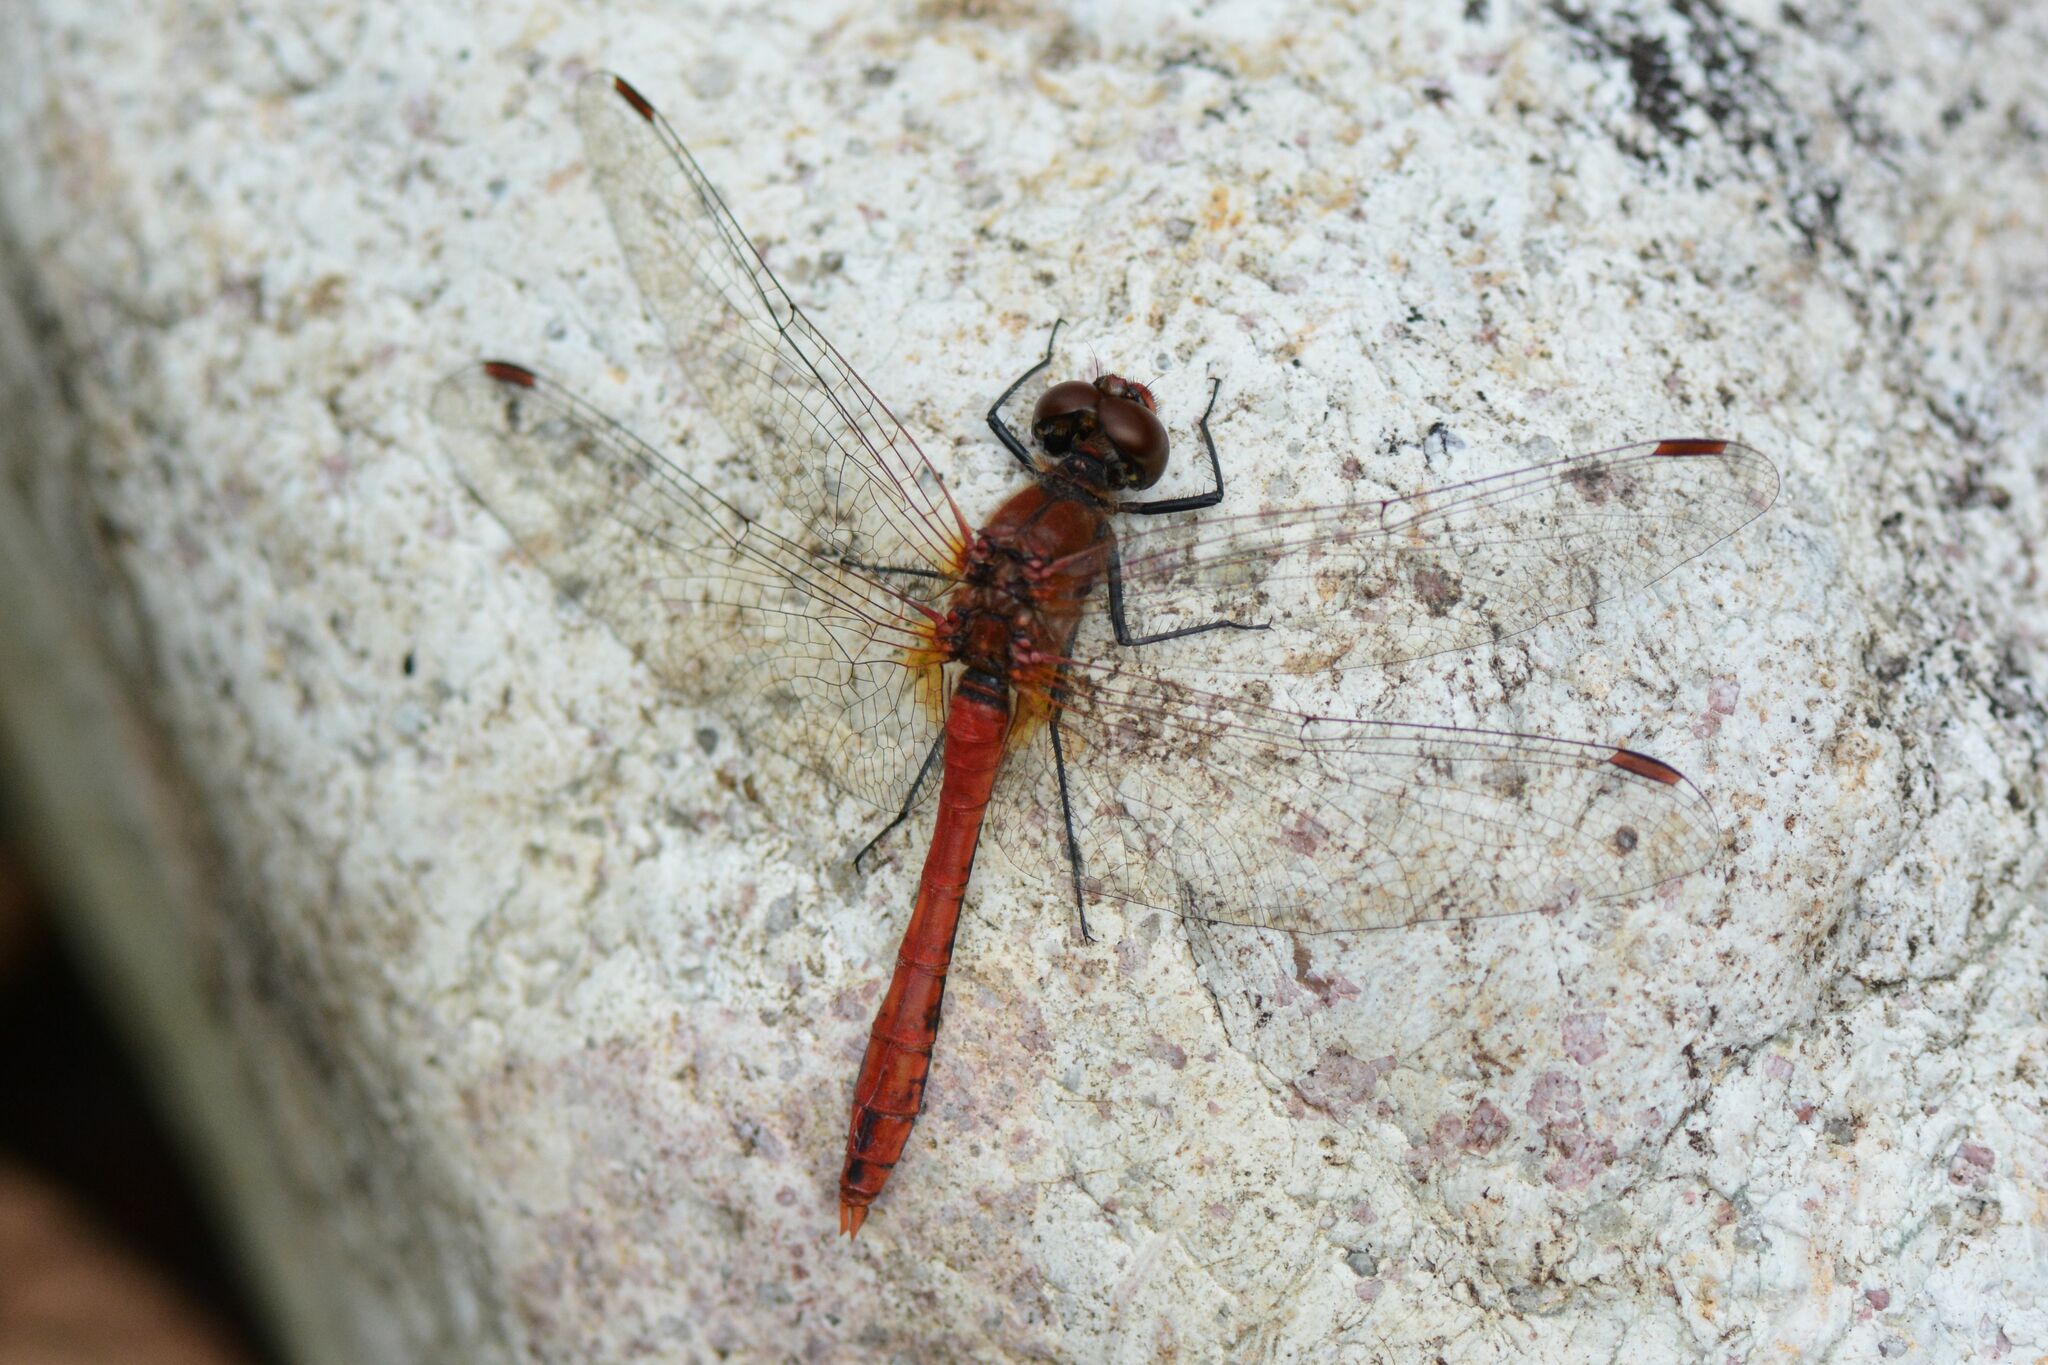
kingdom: Animalia
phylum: Arthropoda
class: Insecta
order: Odonata
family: Libellulidae
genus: Sympetrum
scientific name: Sympetrum sanguineum
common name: Ruddy darter
